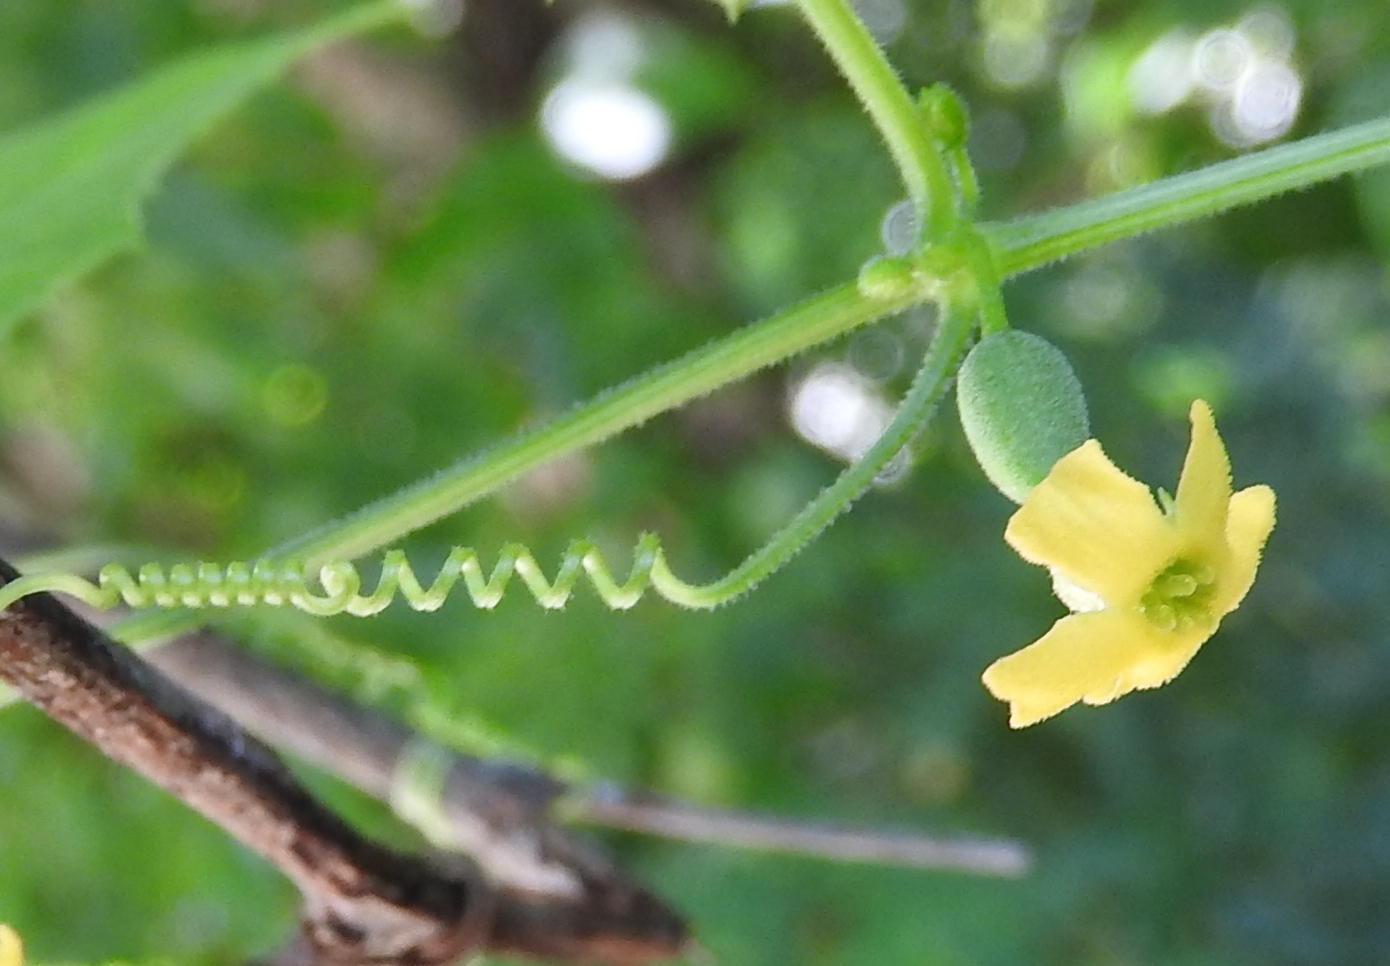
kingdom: Plantae
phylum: Tracheophyta
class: Magnoliopsida
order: Cucurbitales
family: Cucurbitaceae
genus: Melothria
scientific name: Melothria
